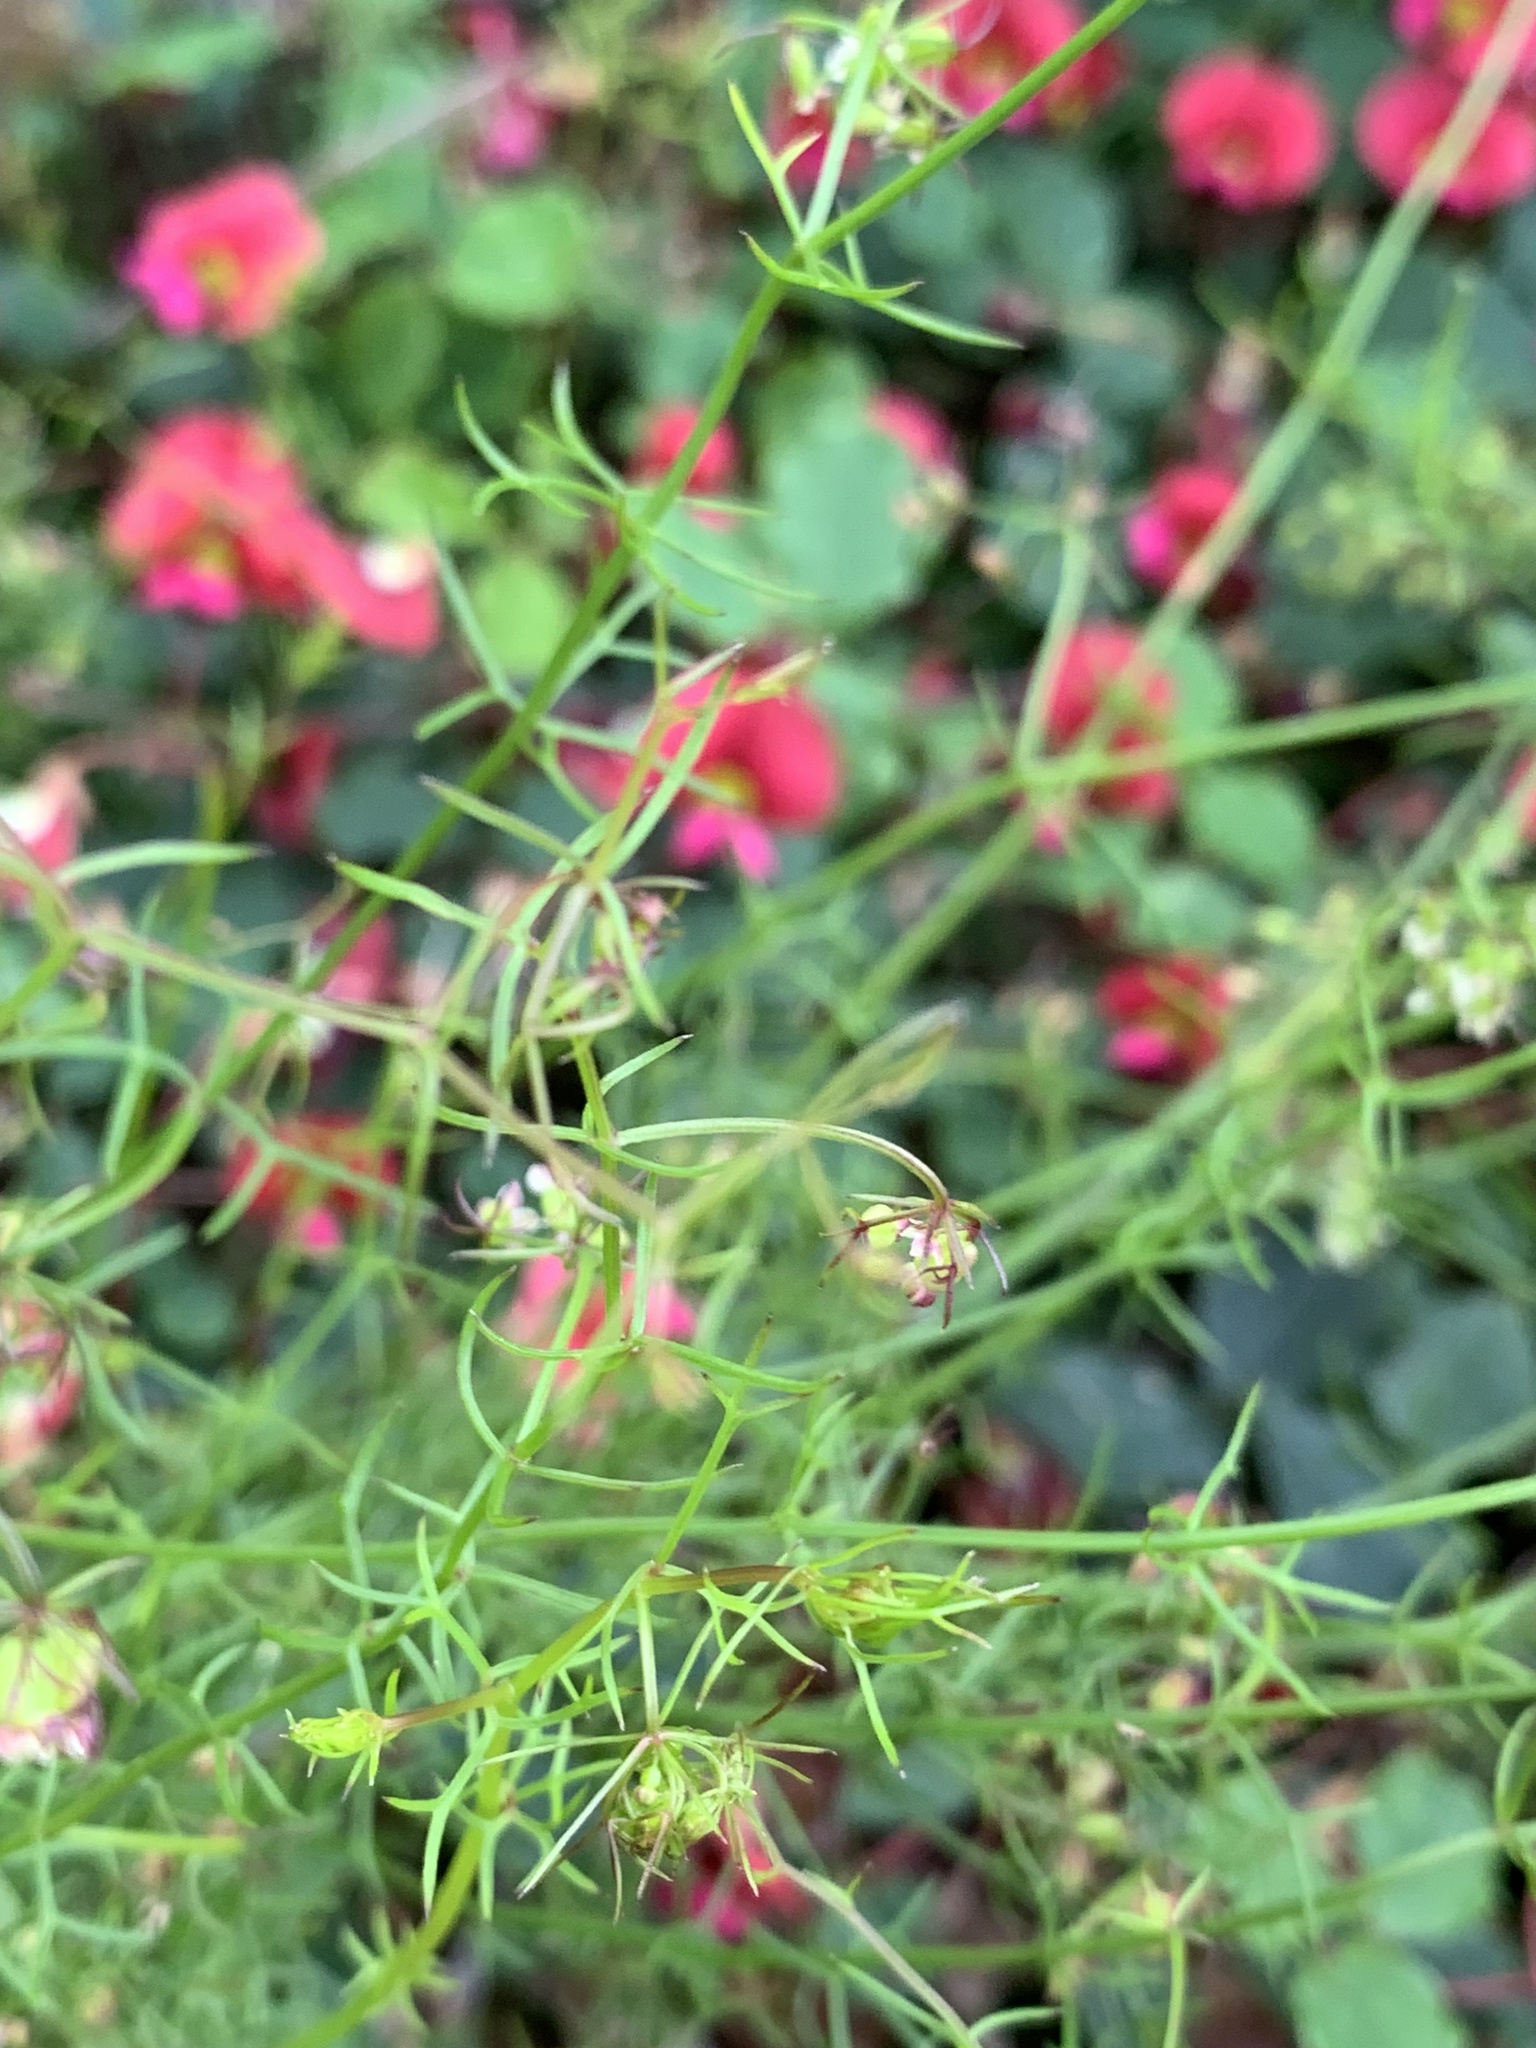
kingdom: Plantae
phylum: Tracheophyta
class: Magnoliopsida
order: Apiales
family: Apiaceae
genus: Platysace
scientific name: Platysace tenuissima
